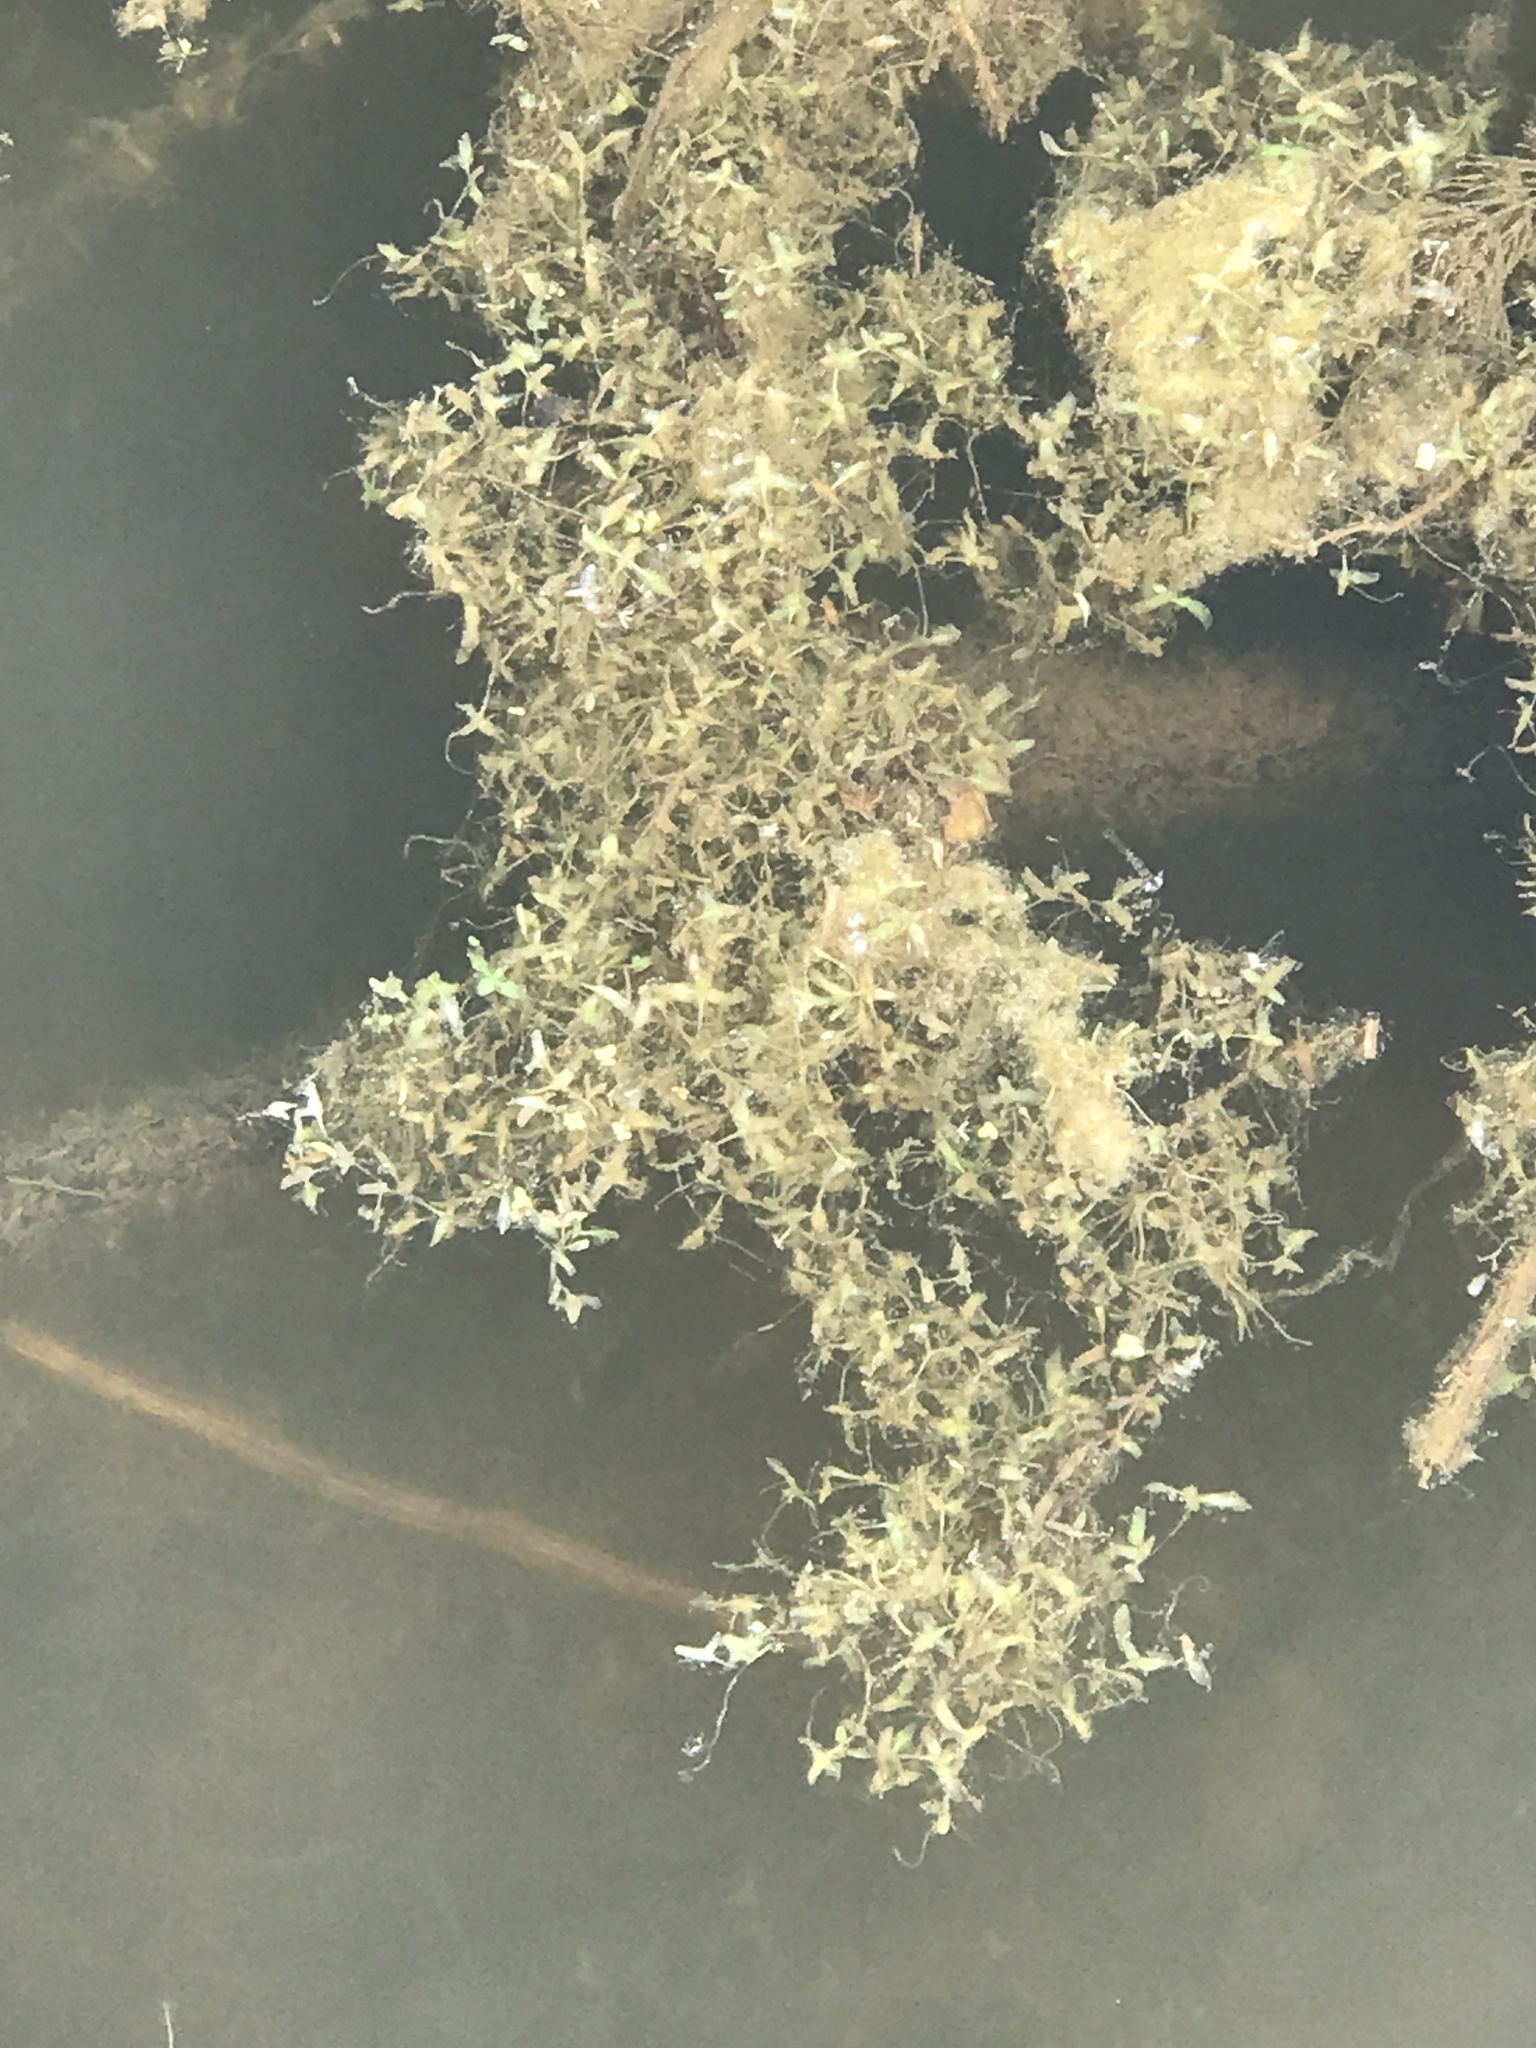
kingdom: Plantae
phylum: Tracheophyta
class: Liliopsida
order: Alismatales
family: Araceae
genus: Lemna
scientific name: Lemna trisulca
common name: Ivy-leaved duckweed
